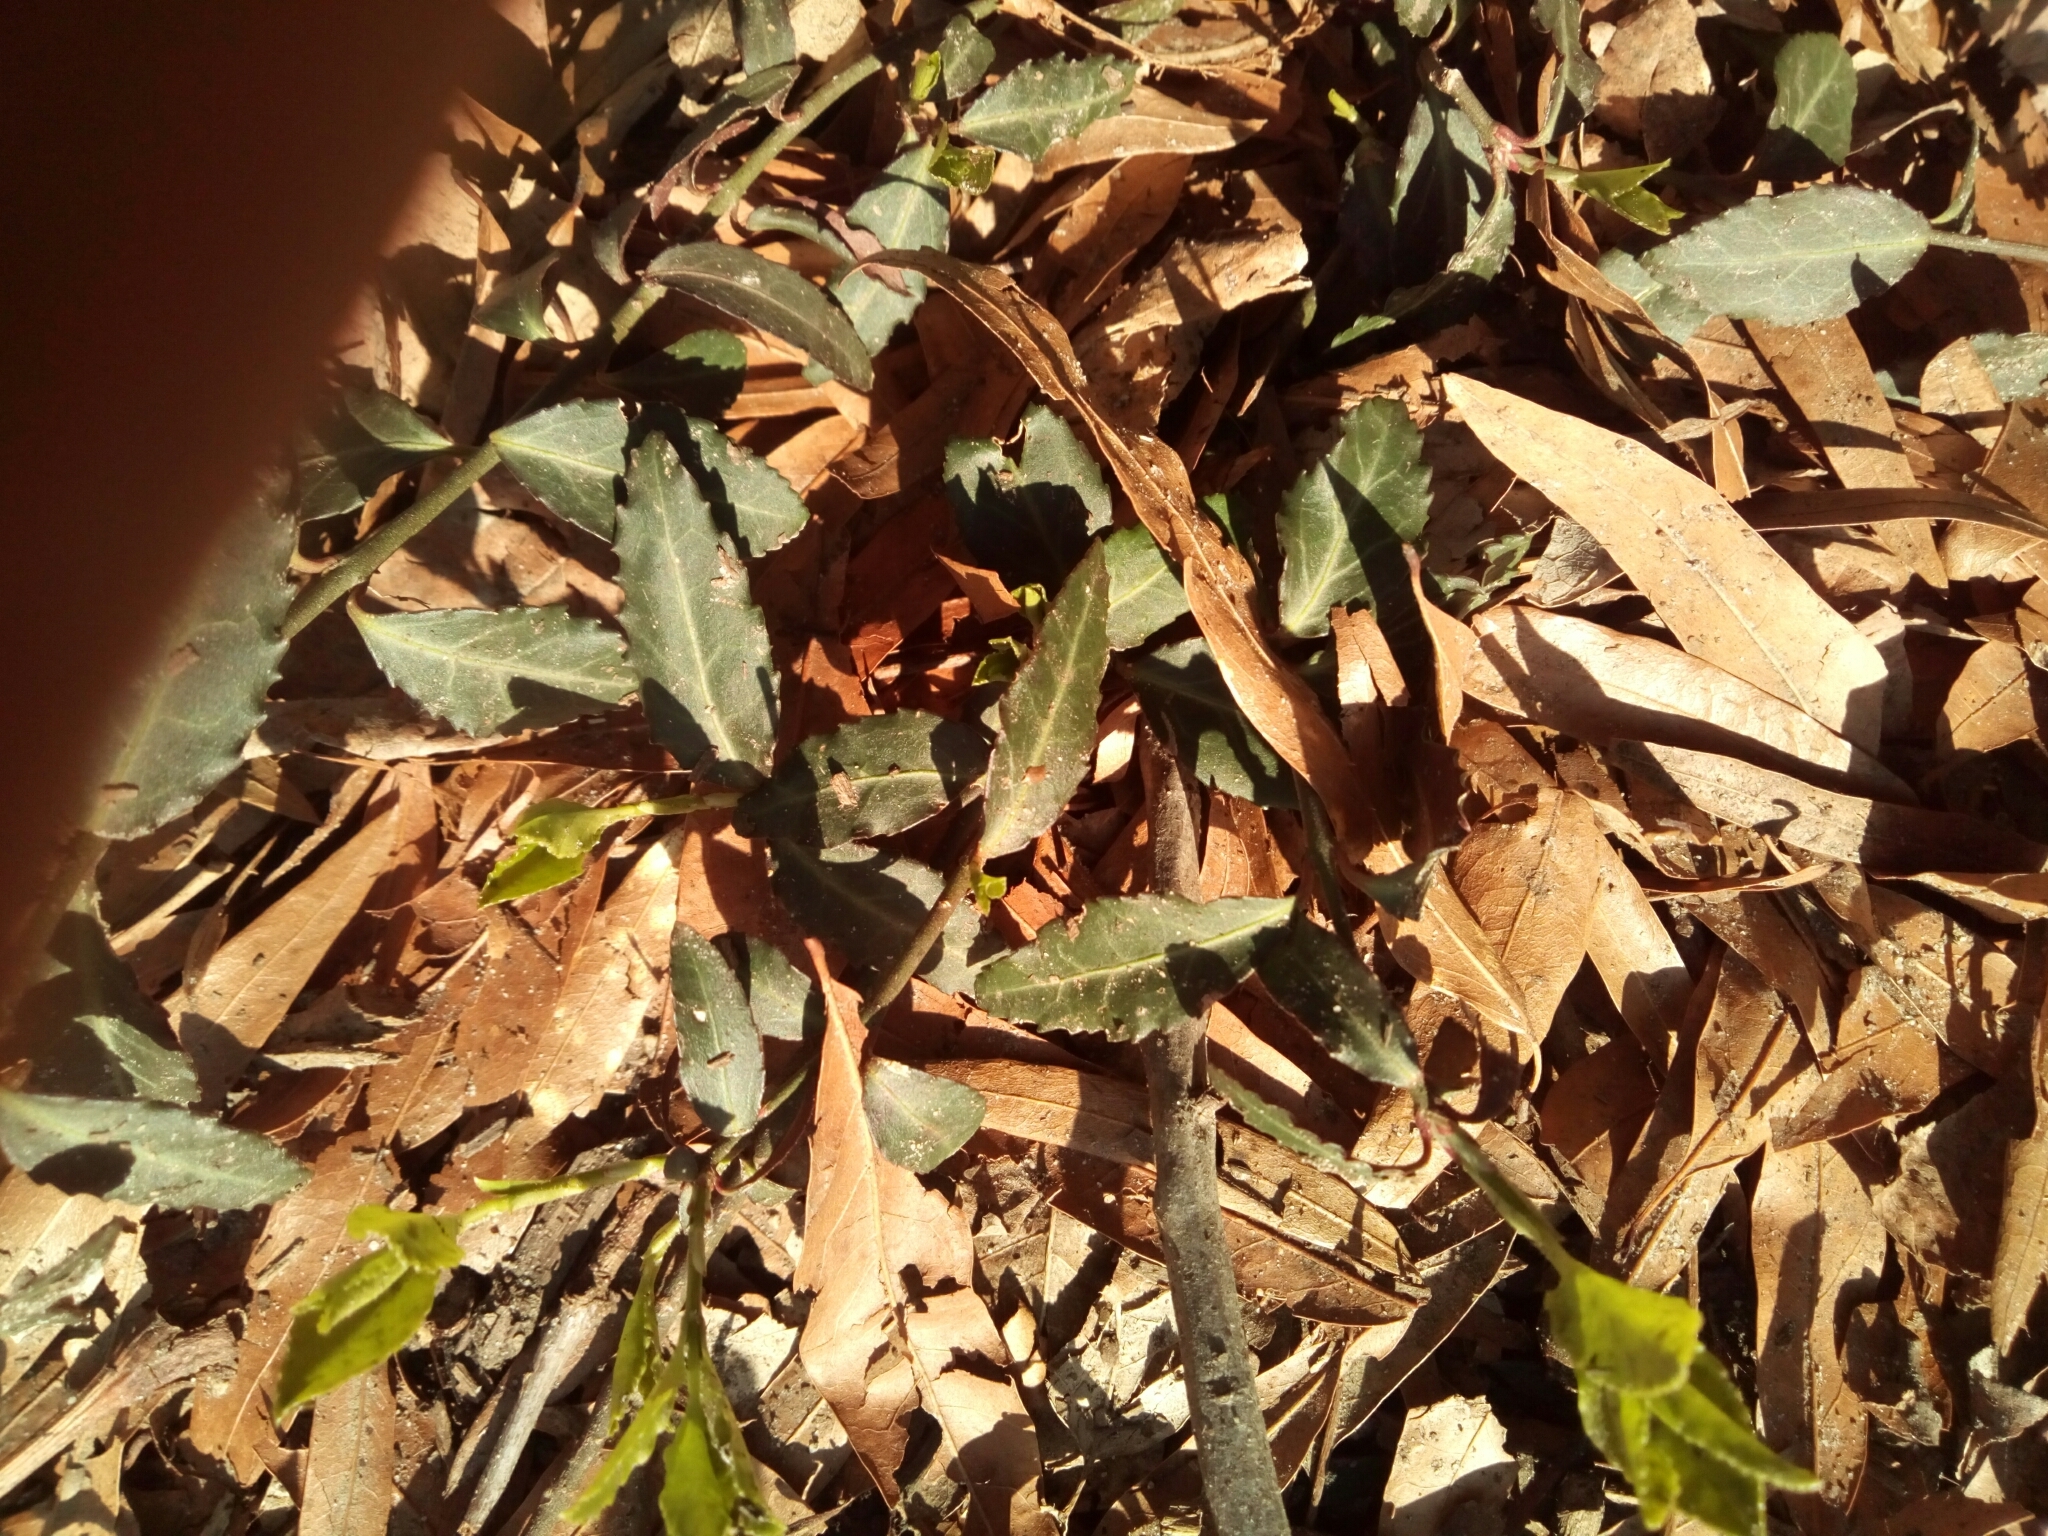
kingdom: Plantae
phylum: Tracheophyta
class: Magnoliopsida
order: Celastrales
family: Celastraceae
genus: Euonymus
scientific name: Euonymus fortunei
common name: Climbing euonymus
